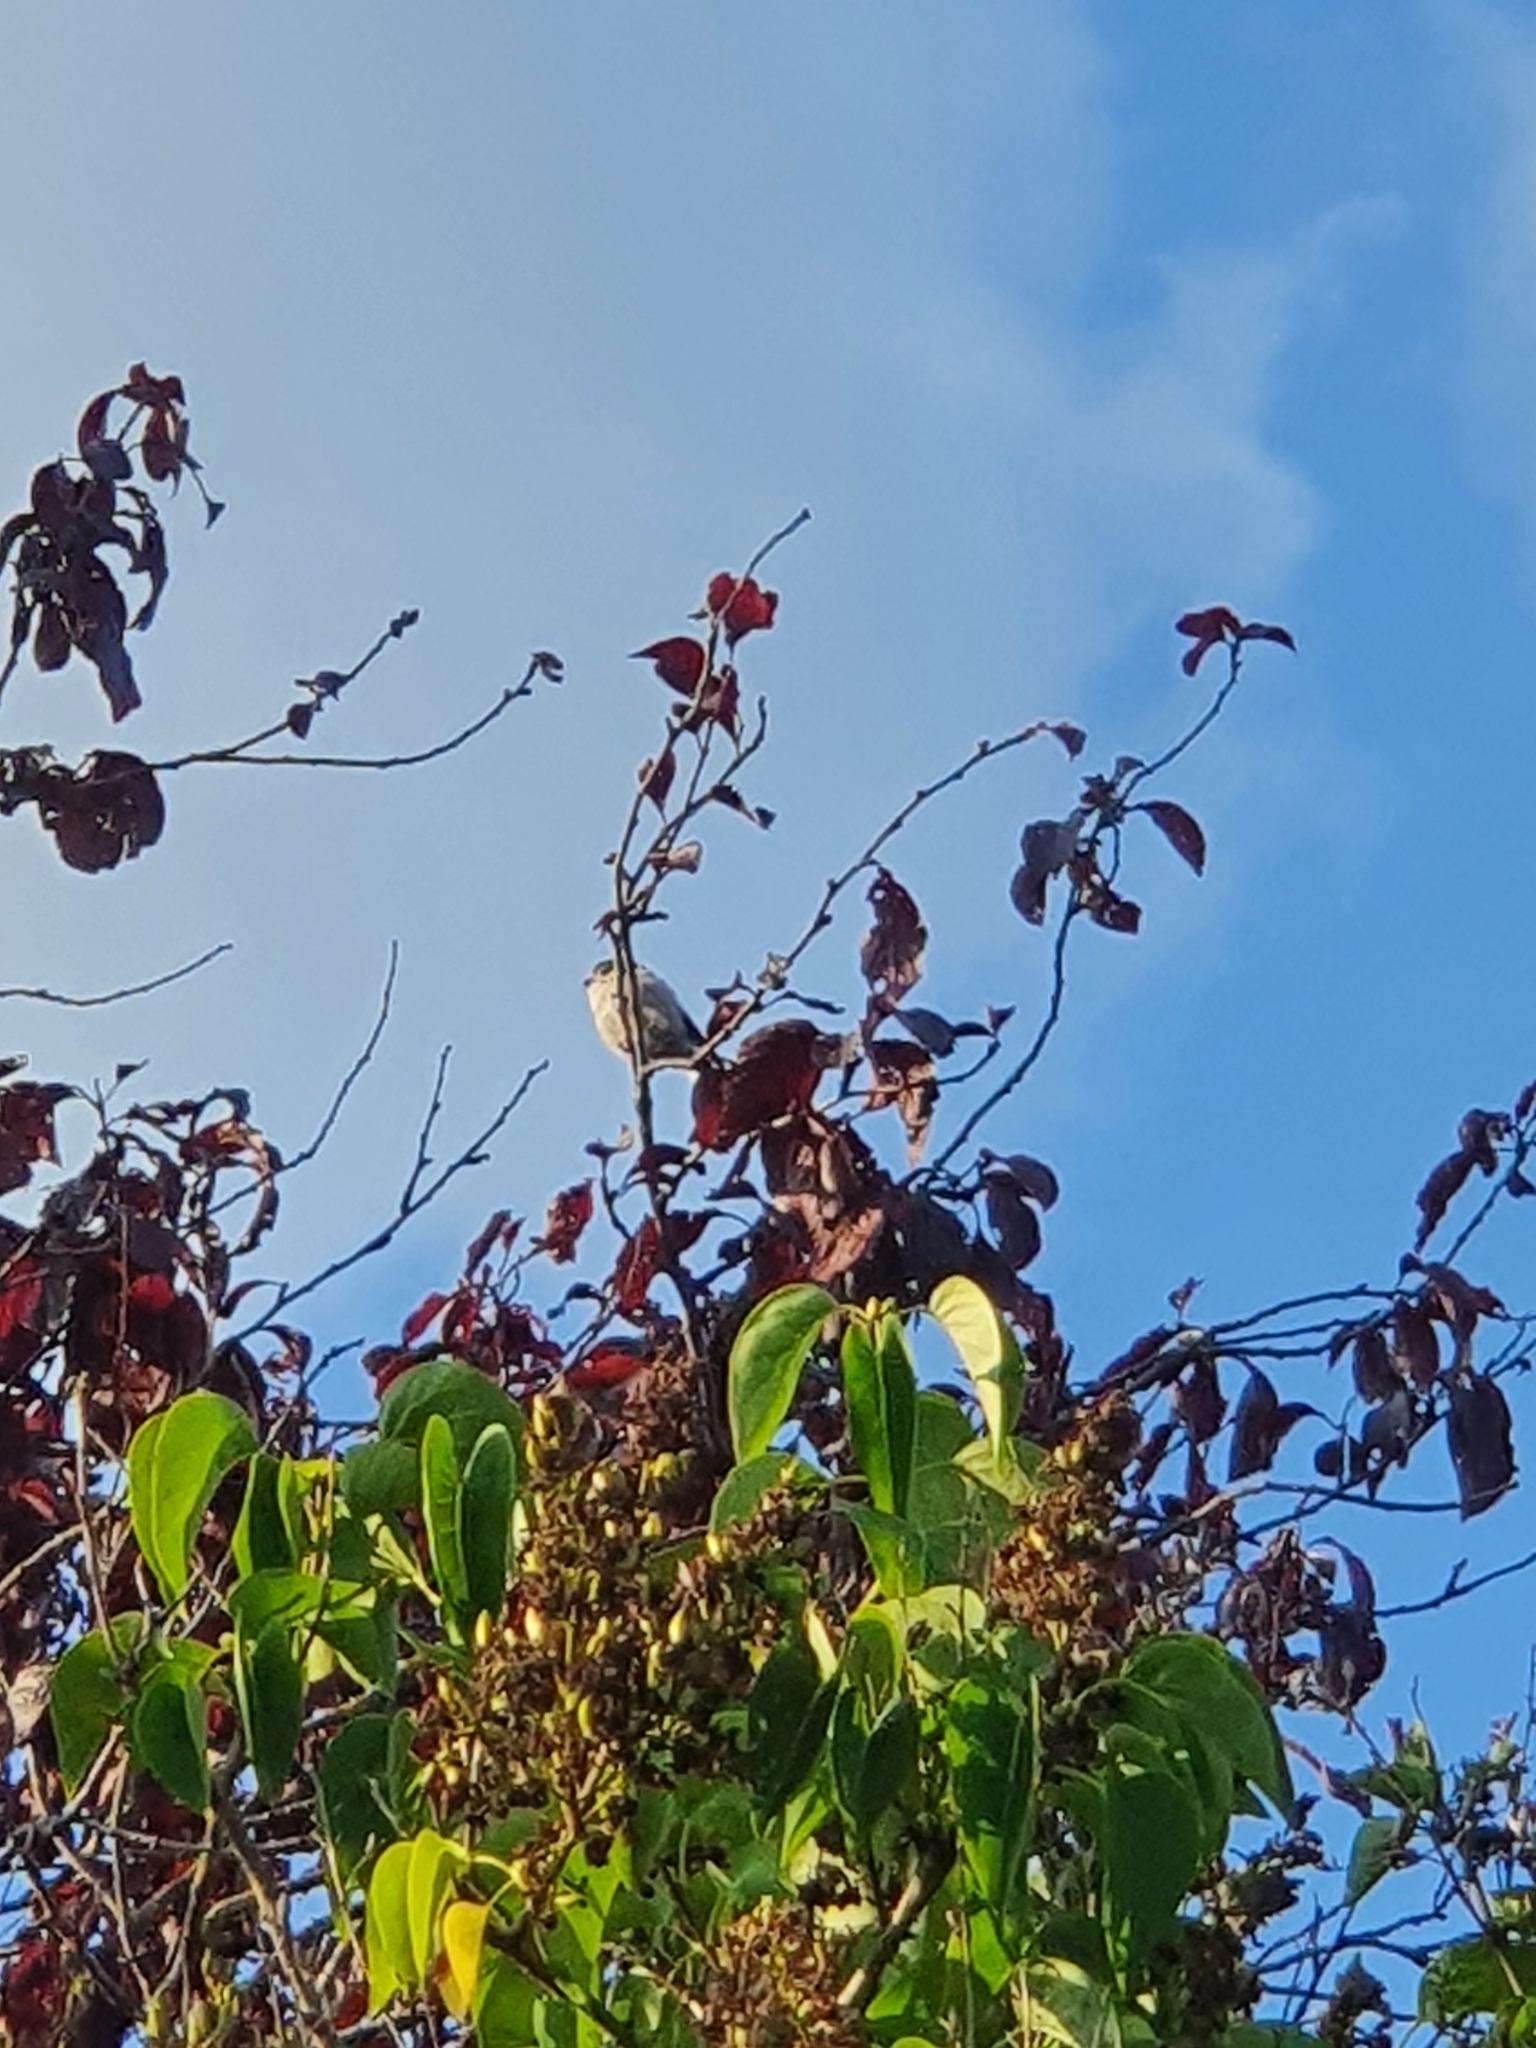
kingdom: Animalia
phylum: Chordata
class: Aves
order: Passeriformes
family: Aegithalidae
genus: Aegithalos
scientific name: Aegithalos caudatus
